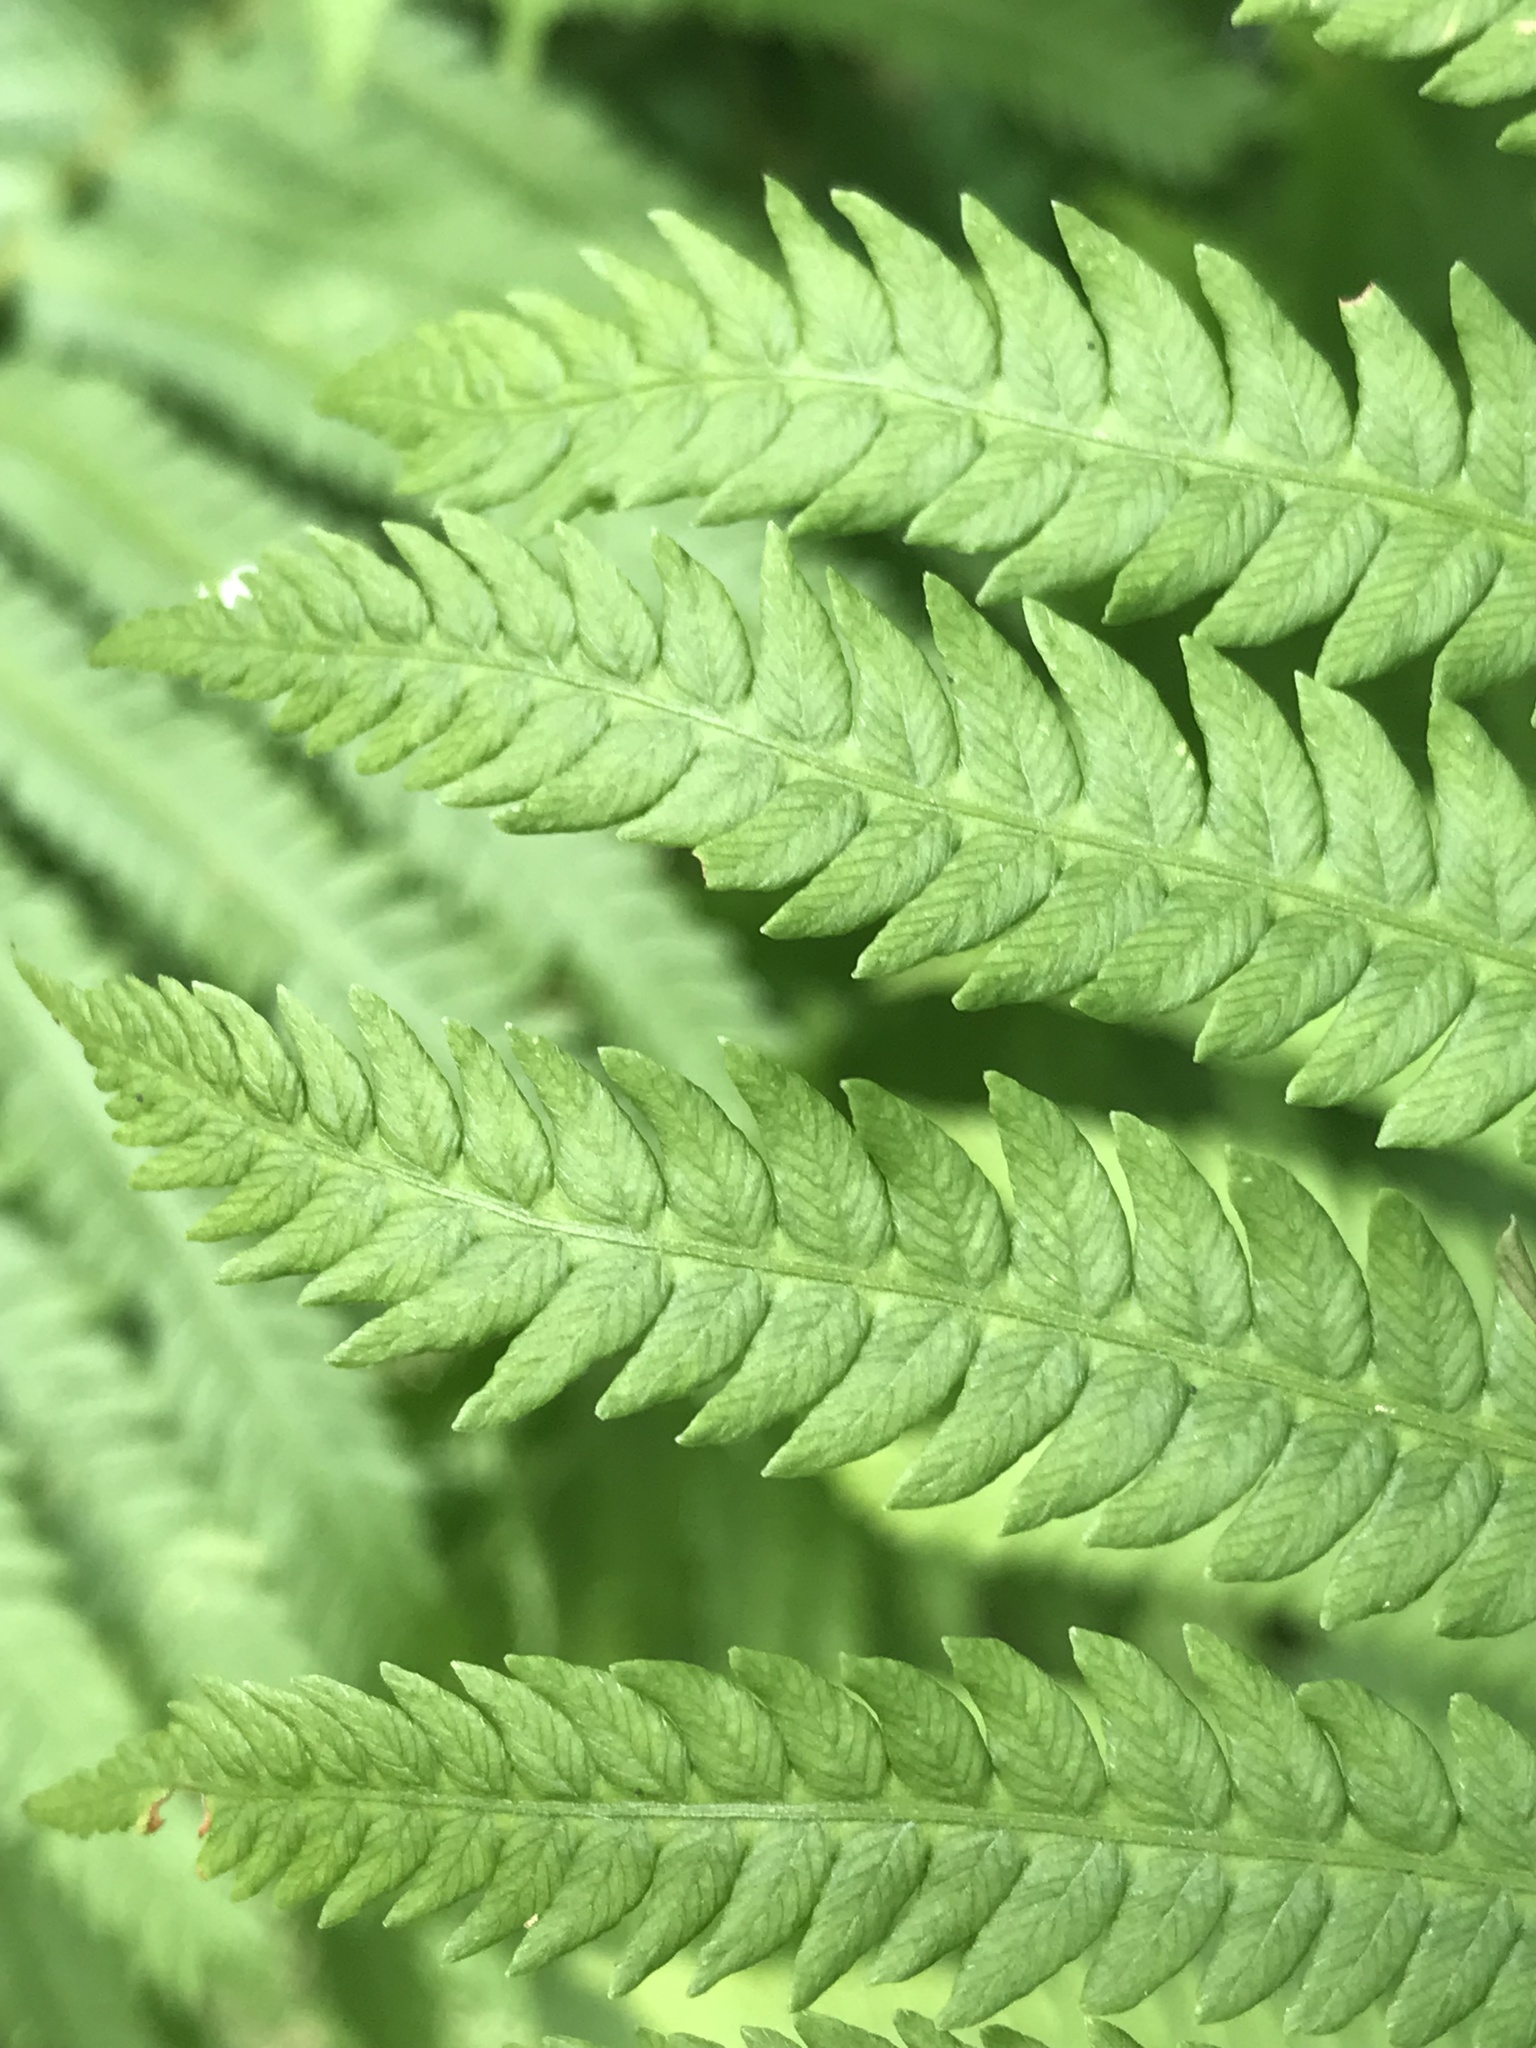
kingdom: Plantae
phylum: Tracheophyta
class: Polypodiopsida
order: Polypodiales
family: Thelypteridaceae
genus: Amauropelta
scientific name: Amauropelta noveboracensis
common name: New york fern
